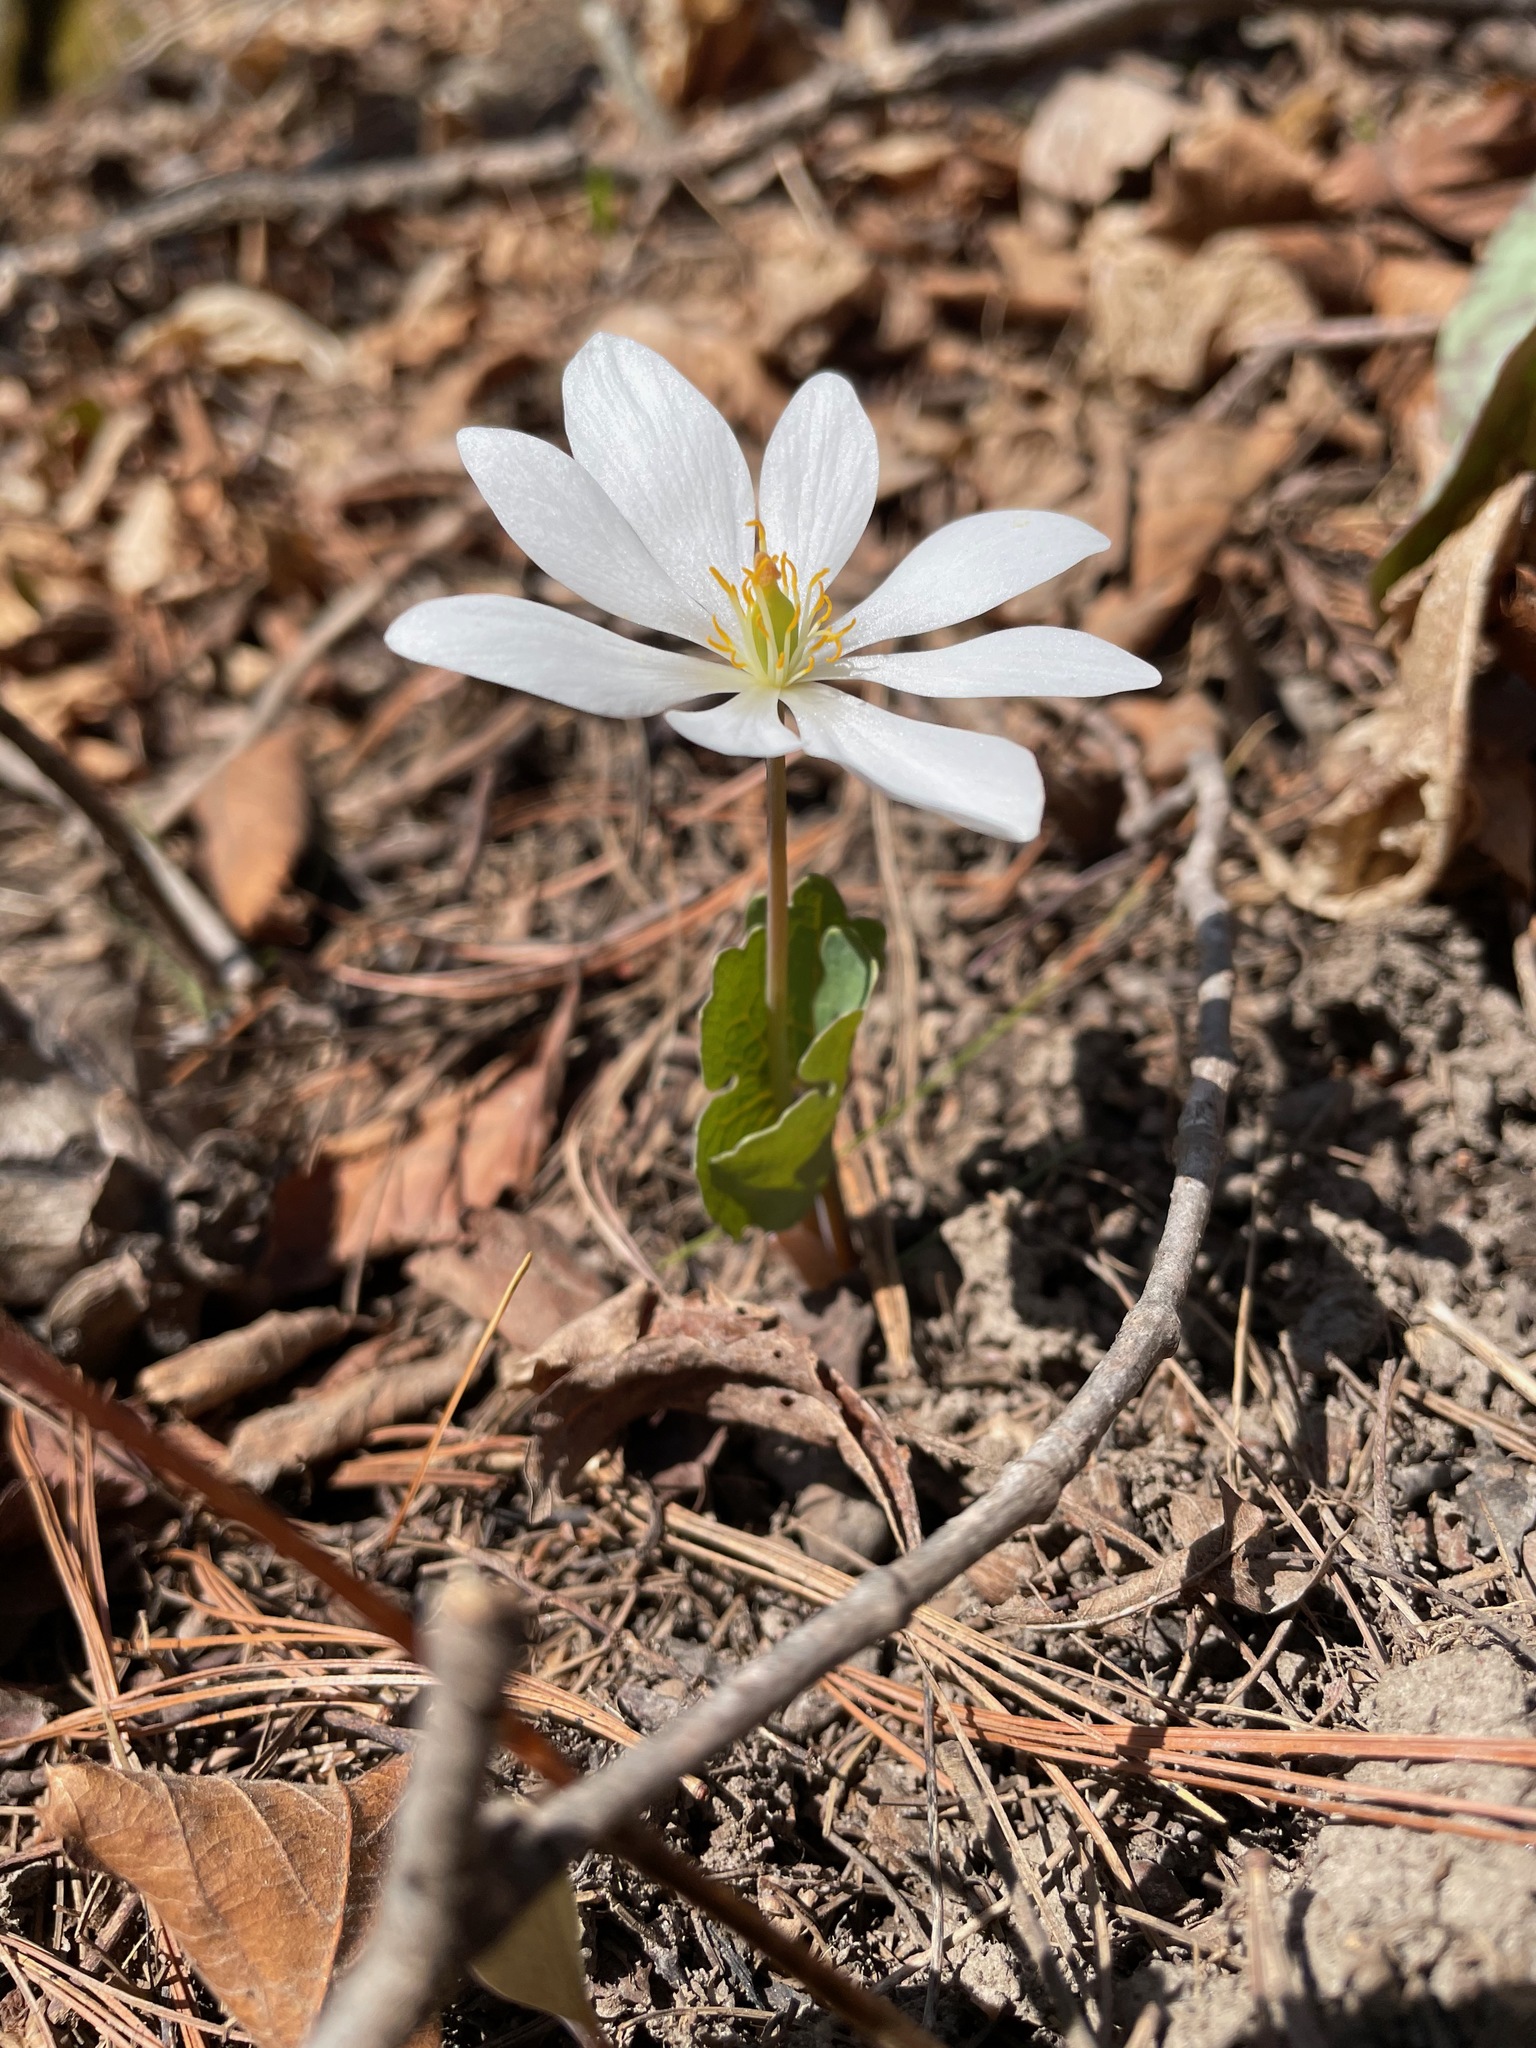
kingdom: Plantae
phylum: Tracheophyta
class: Magnoliopsida
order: Ranunculales
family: Papaveraceae
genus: Sanguinaria
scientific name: Sanguinaria canadensis
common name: Bloodroot
